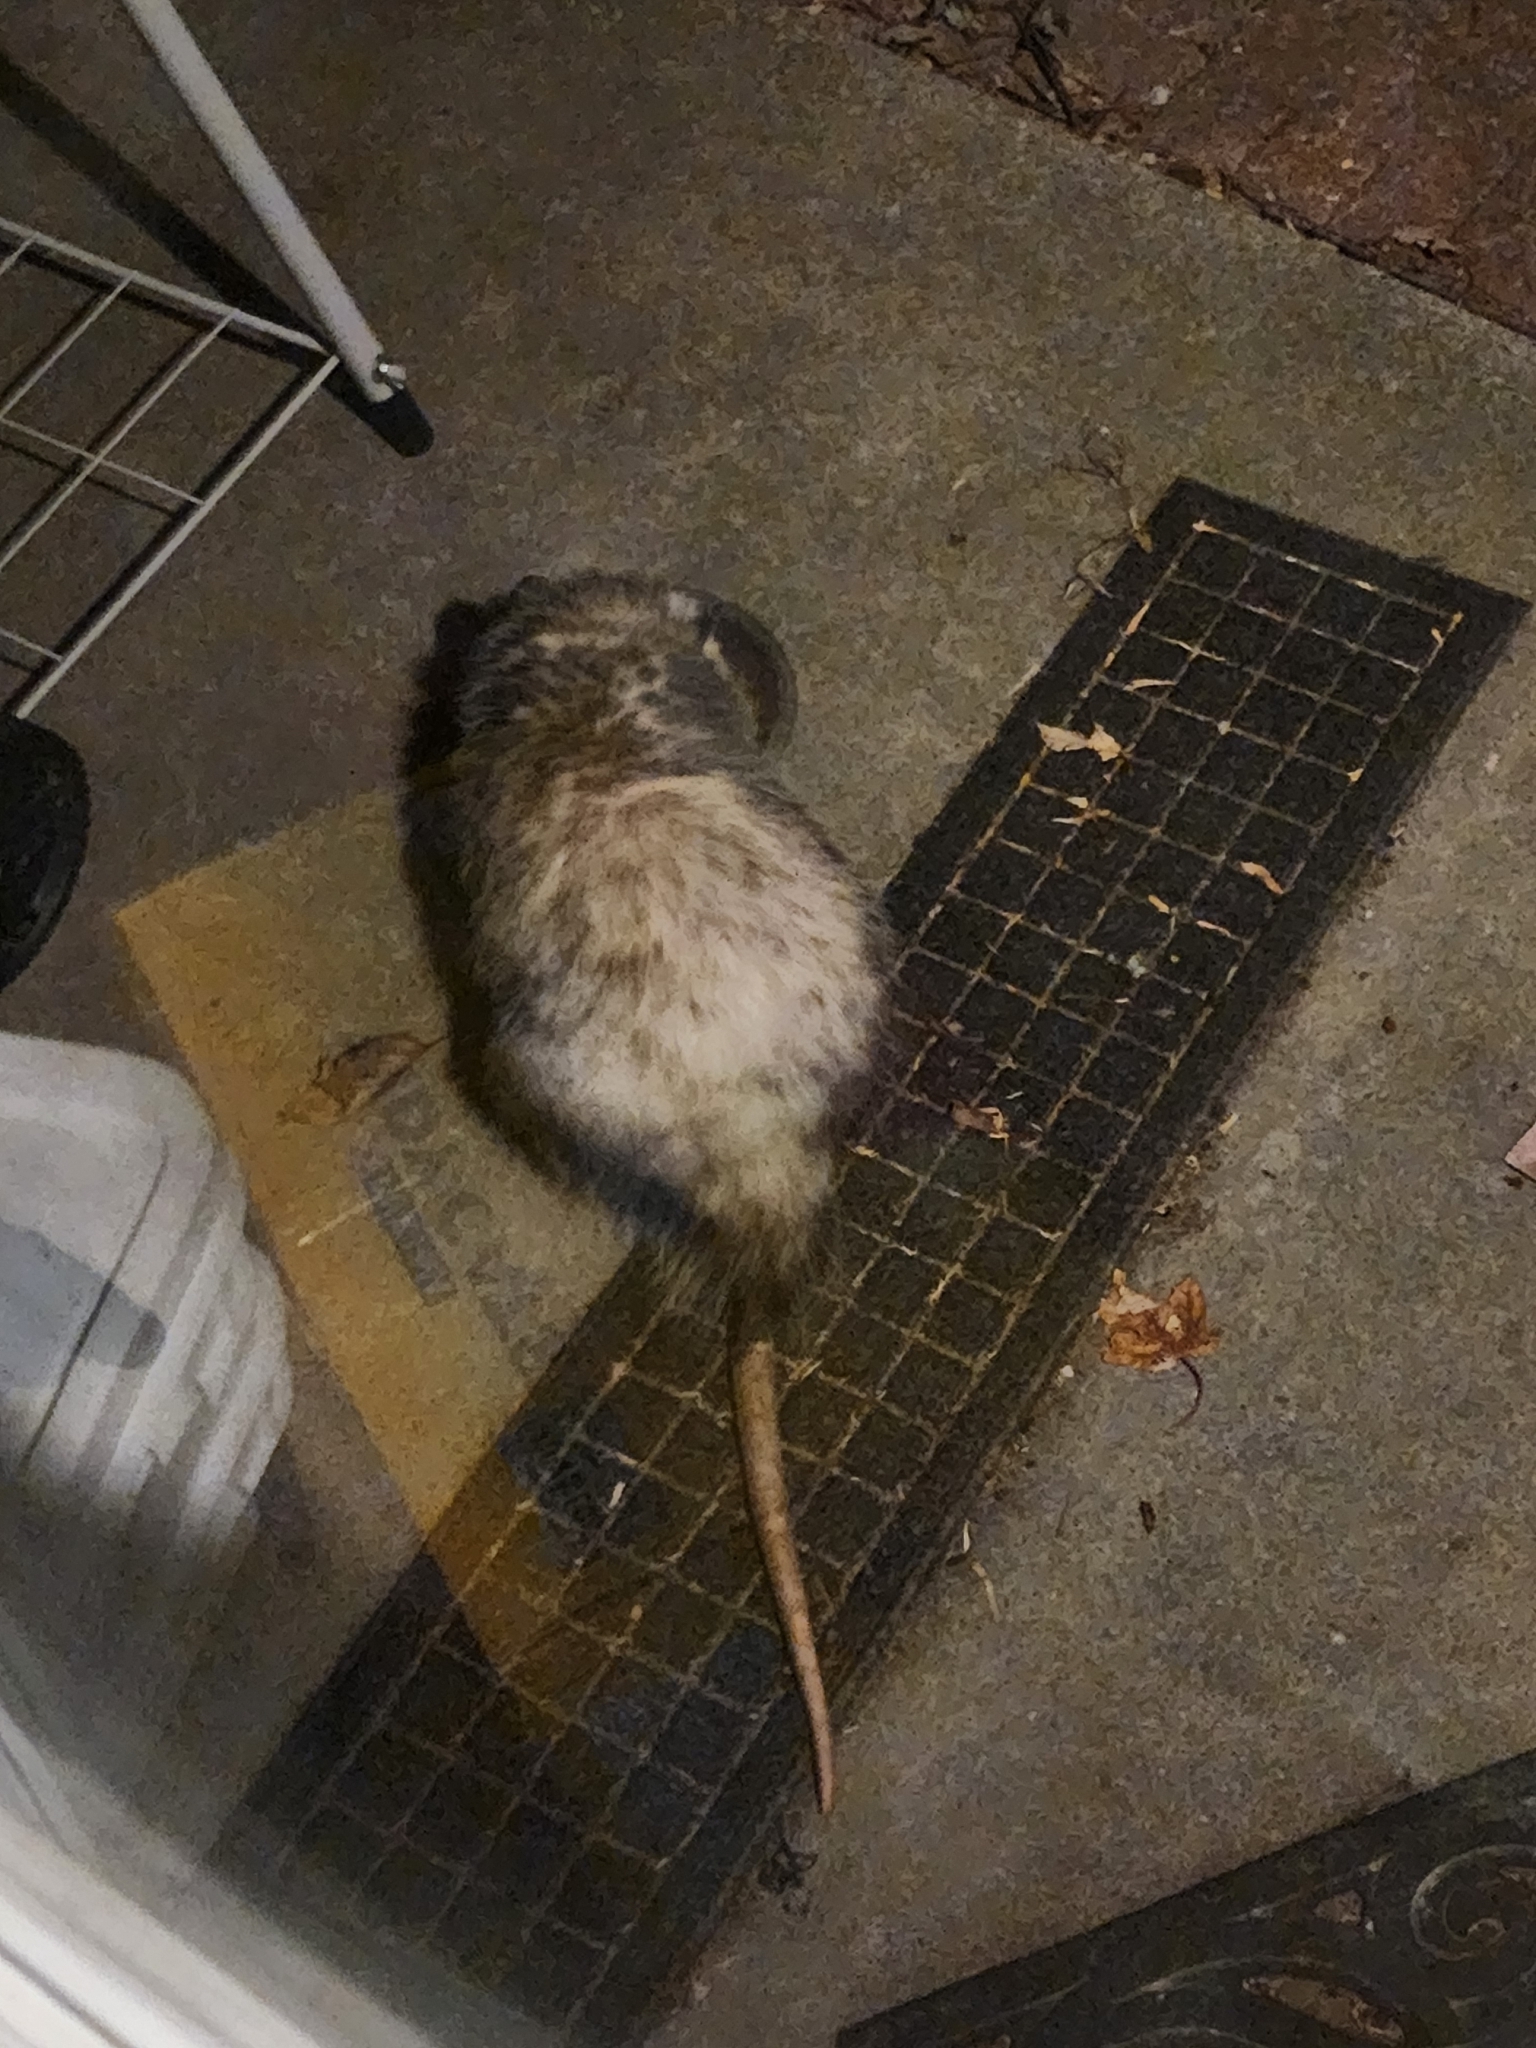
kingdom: Animalia
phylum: Chordata
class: Mammalia
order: Didelphimorphia
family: Didelphidae
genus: Didelphis
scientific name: Didelphis virginiana
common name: Virginia opossum
